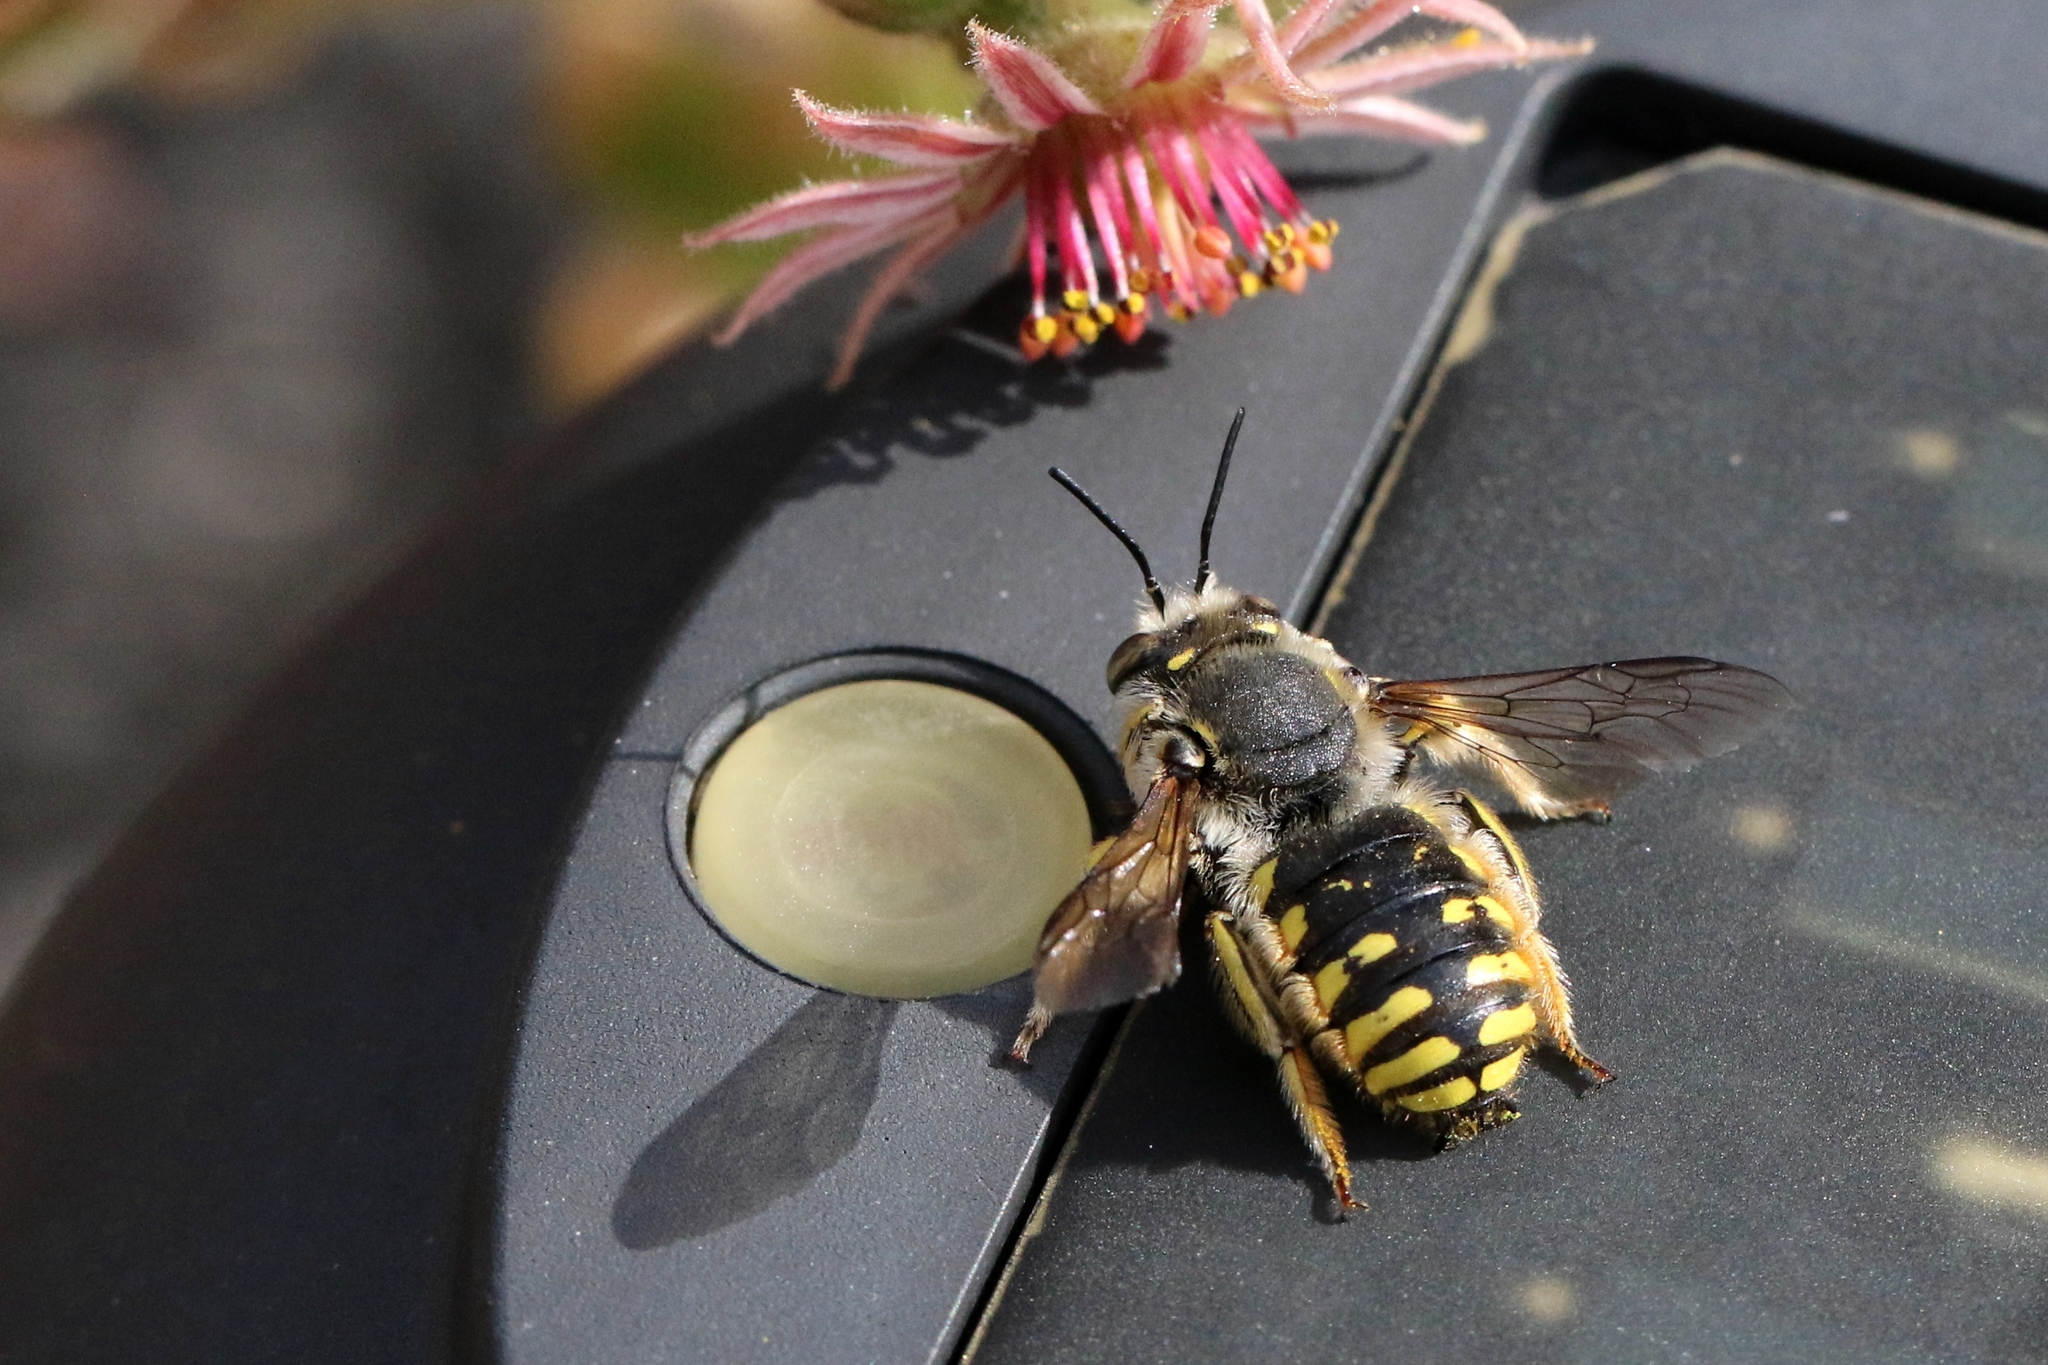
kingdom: Animalia
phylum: Arthropoda
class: Insecta
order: Hymenoptera
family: Megachilidae
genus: Anthidium
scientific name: Anthidium manicatum
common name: Wool carder bee
